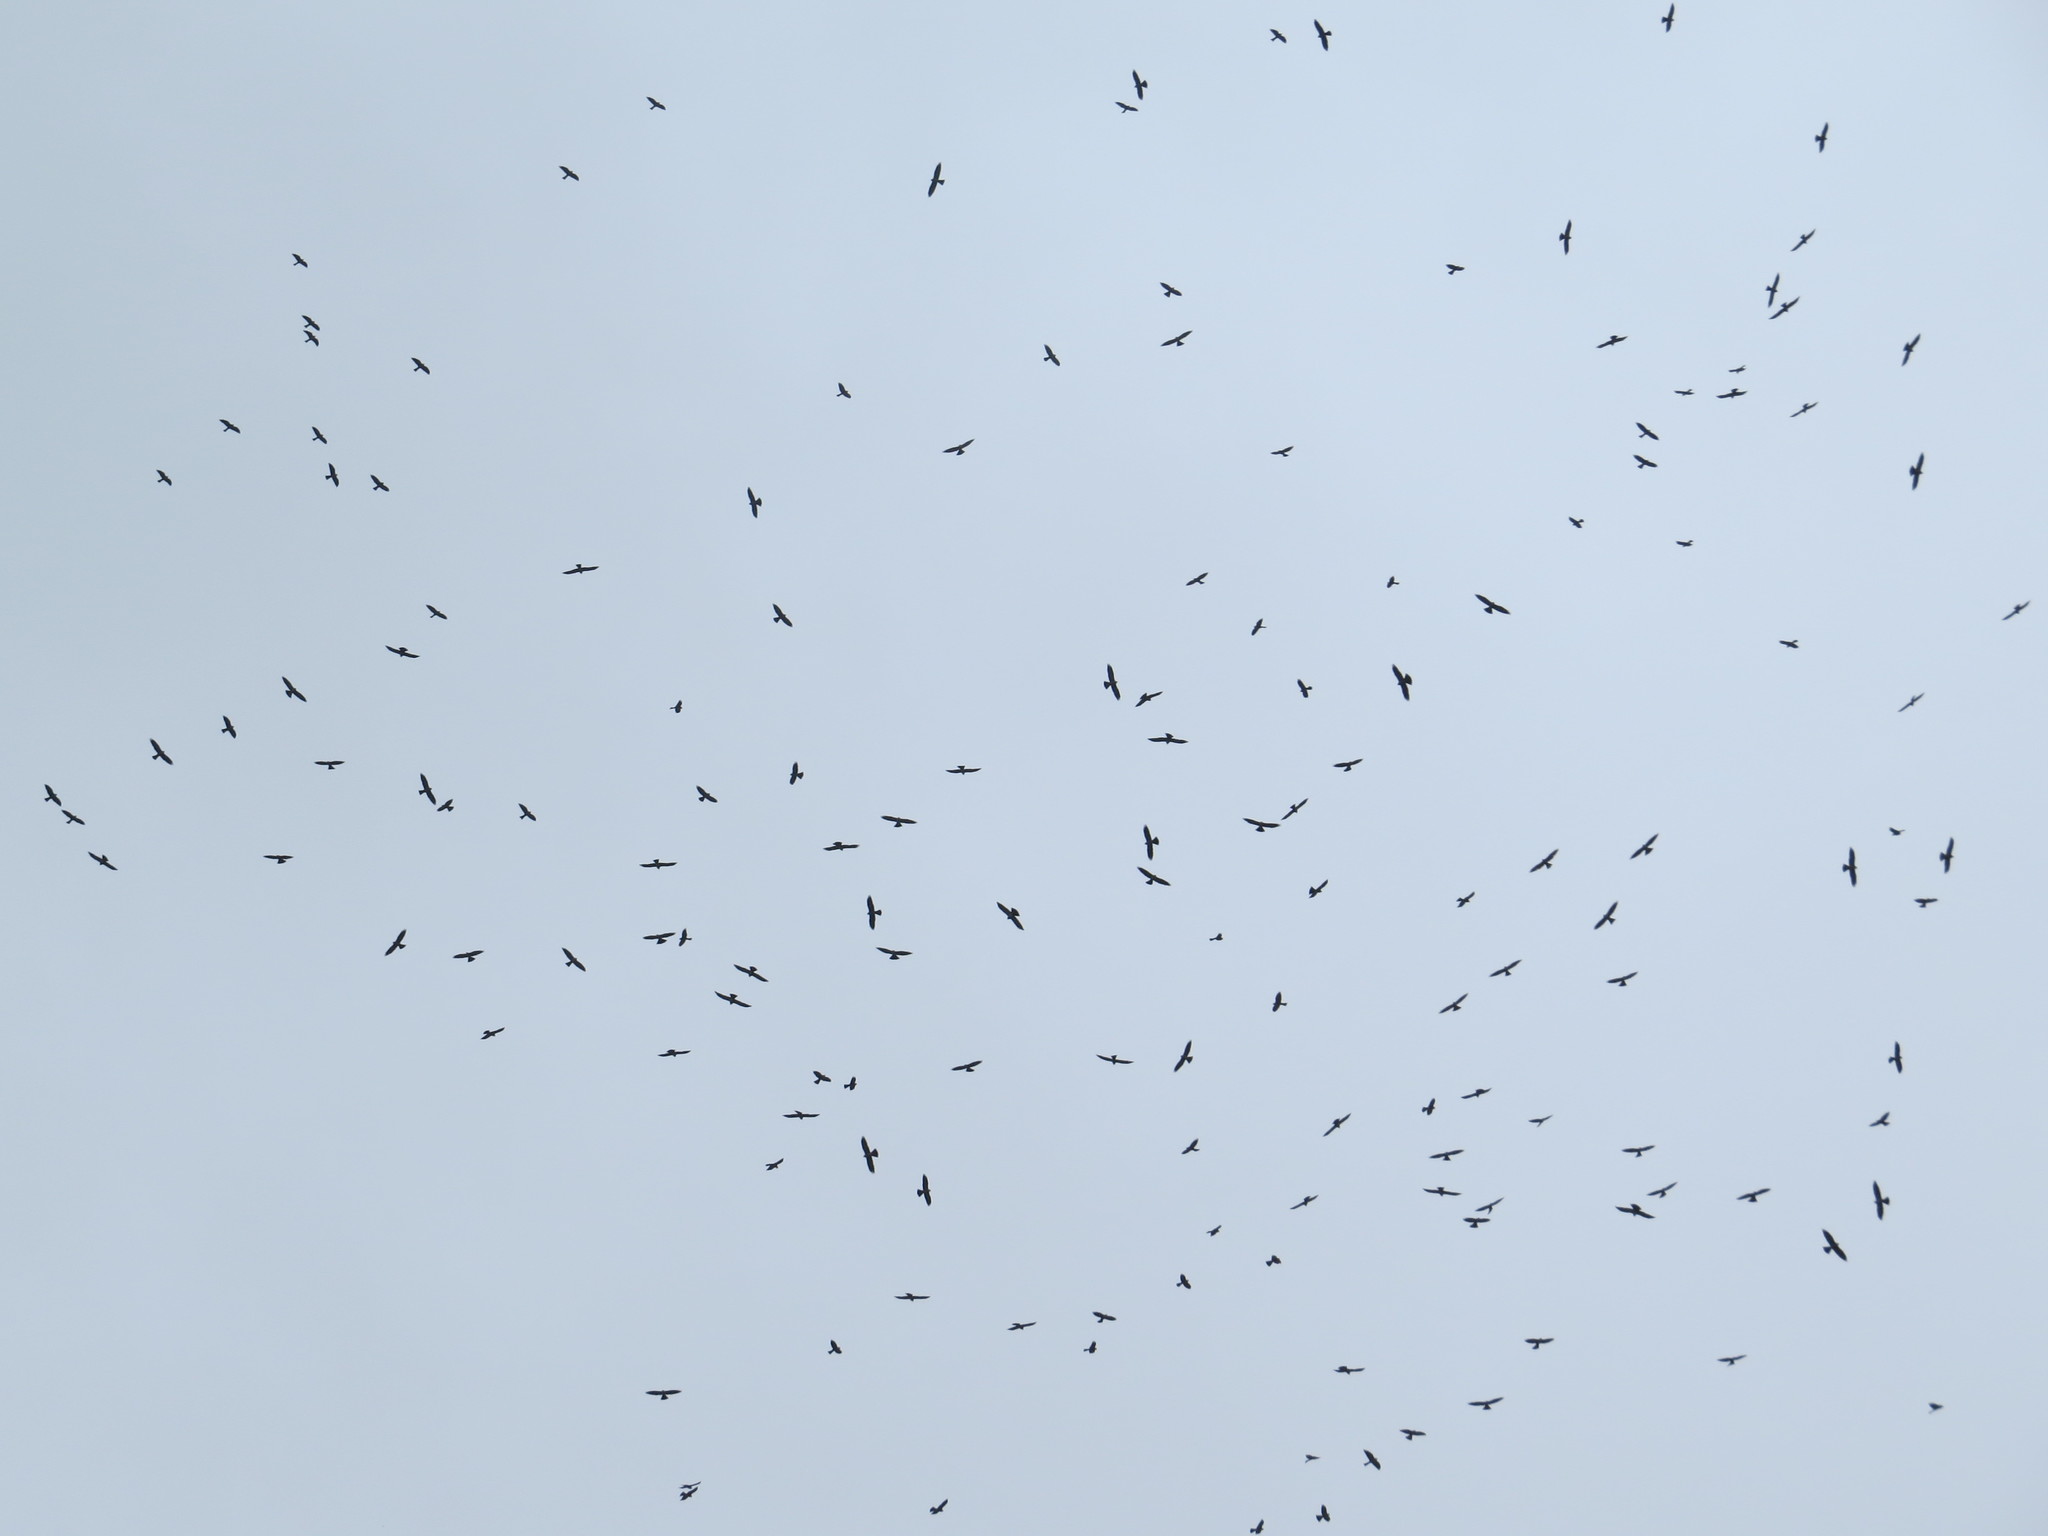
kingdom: Animalia
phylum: Chordata
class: Aves
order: Accipitriformes
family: Accipitridae
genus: Ictinia
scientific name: Ictinia mississippiensis
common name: Mississippi kite
